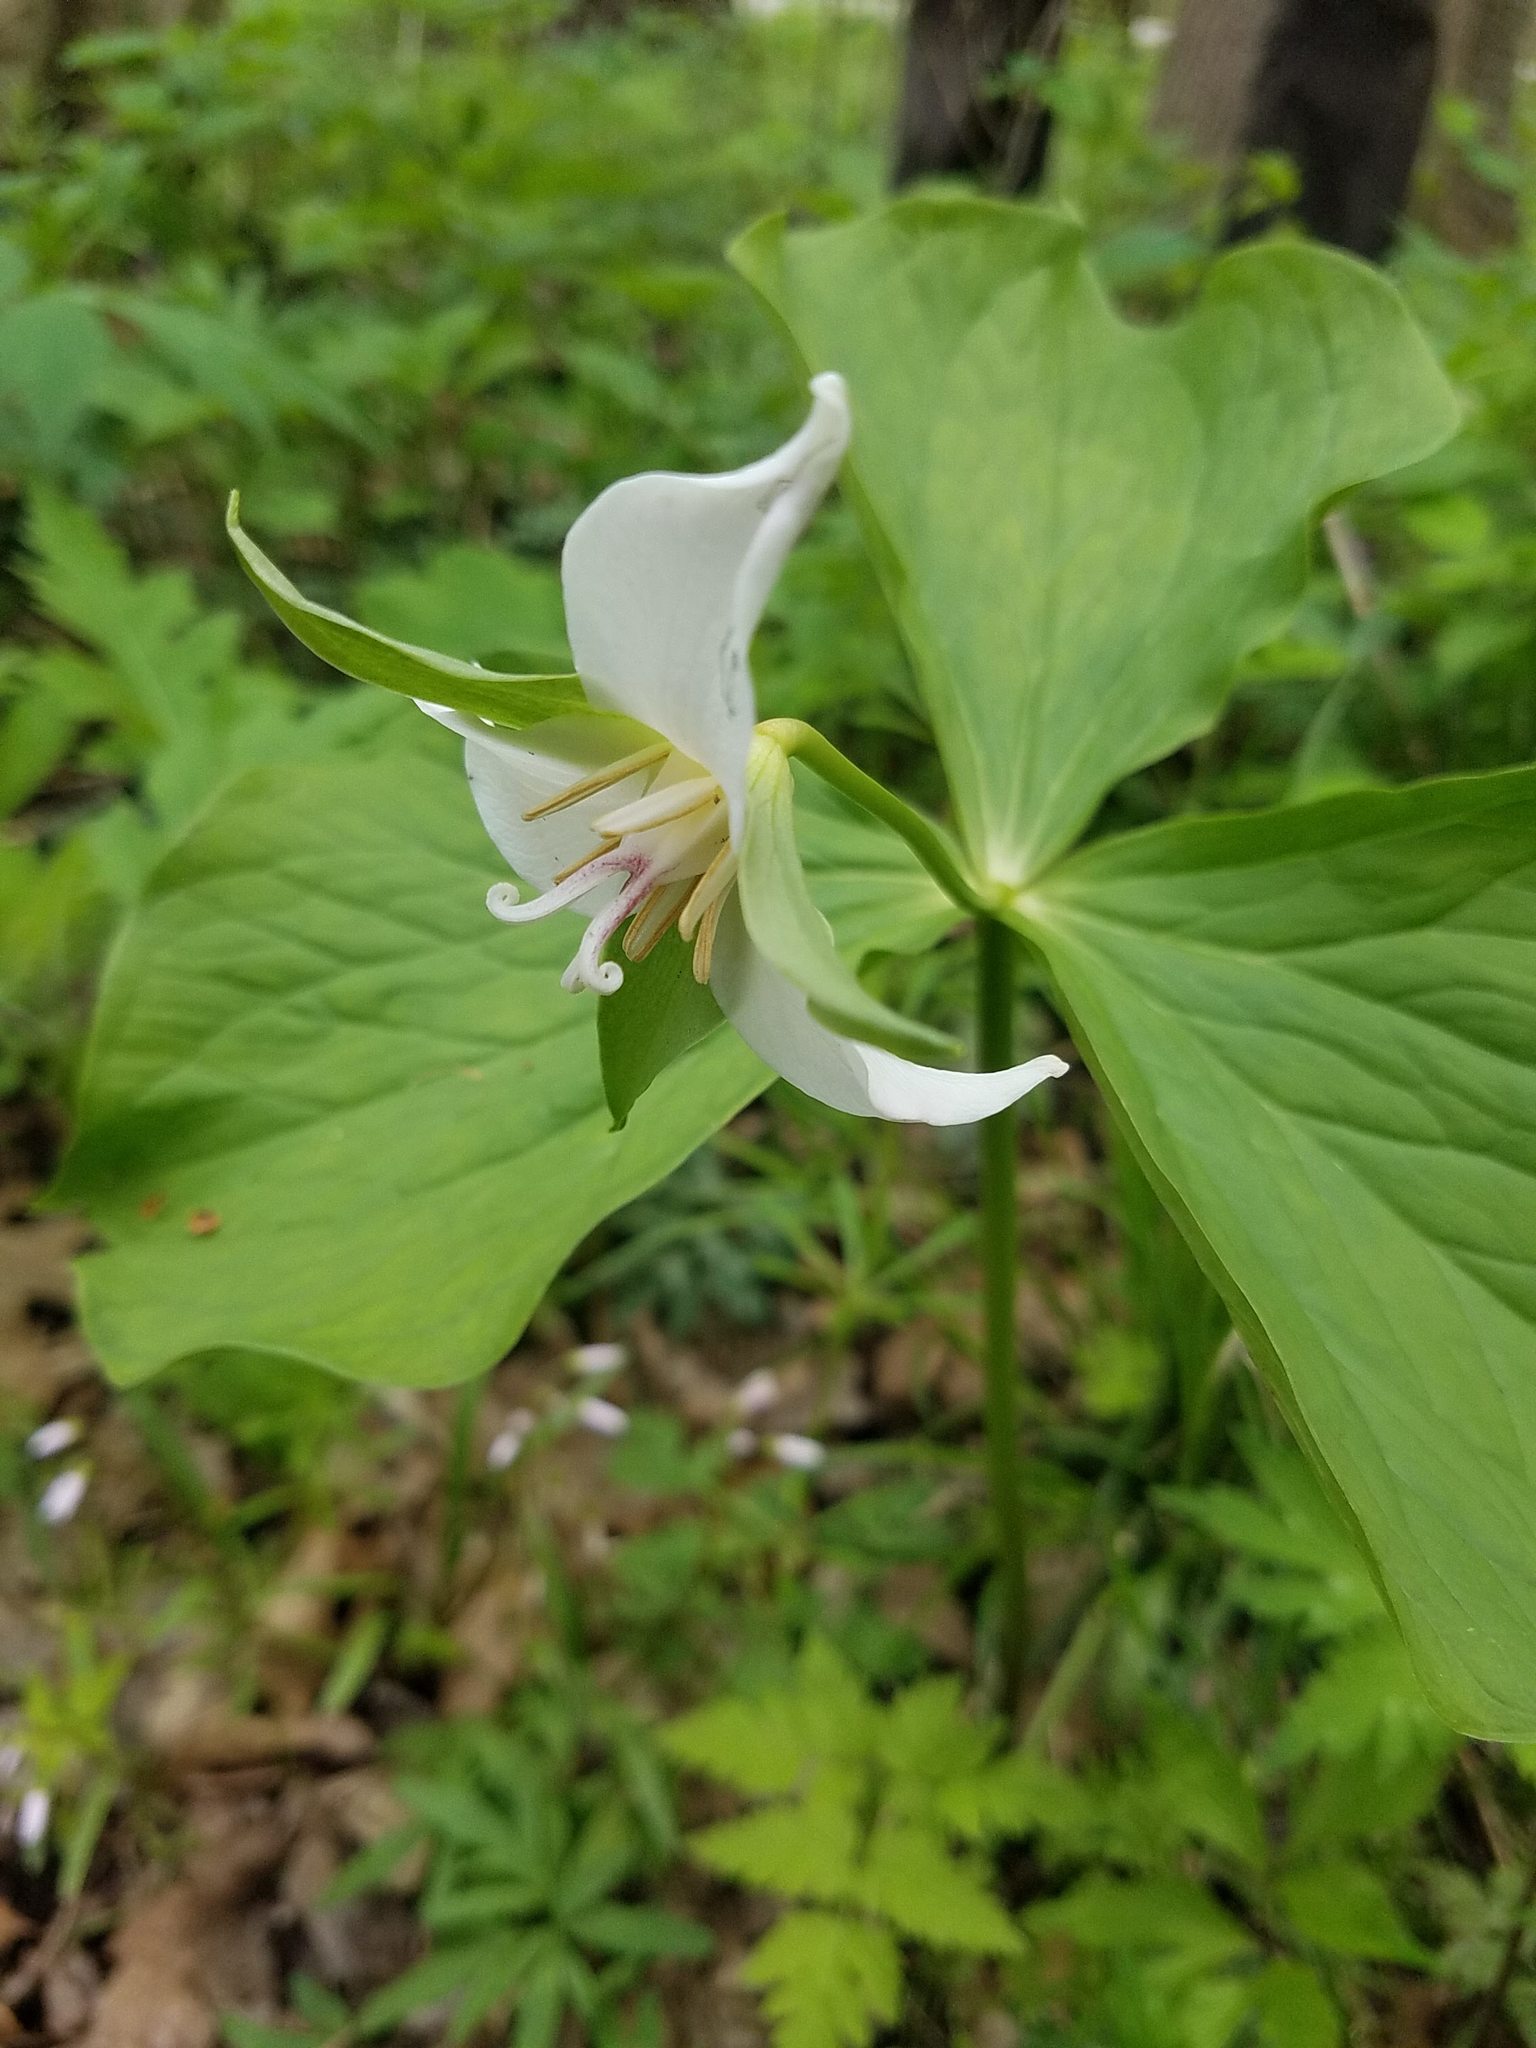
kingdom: Plantae
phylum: Tracheophyta
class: Liliopsida
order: Liliales
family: Melanthiaceae
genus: Trillium
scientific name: Trillium flexipes
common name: Drooping trillium
